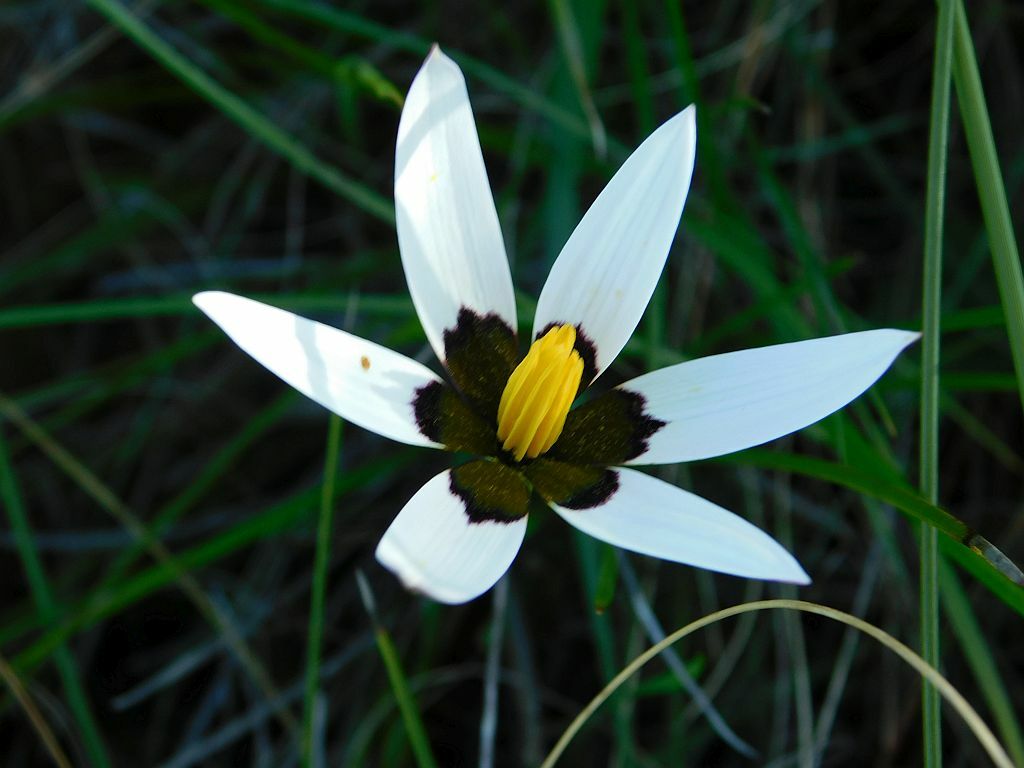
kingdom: Plantae
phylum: Tracheophyta
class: Liliopsida
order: Asparagales
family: Hypoxidaceae
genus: Pauridia
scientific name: Pauridia capensis
